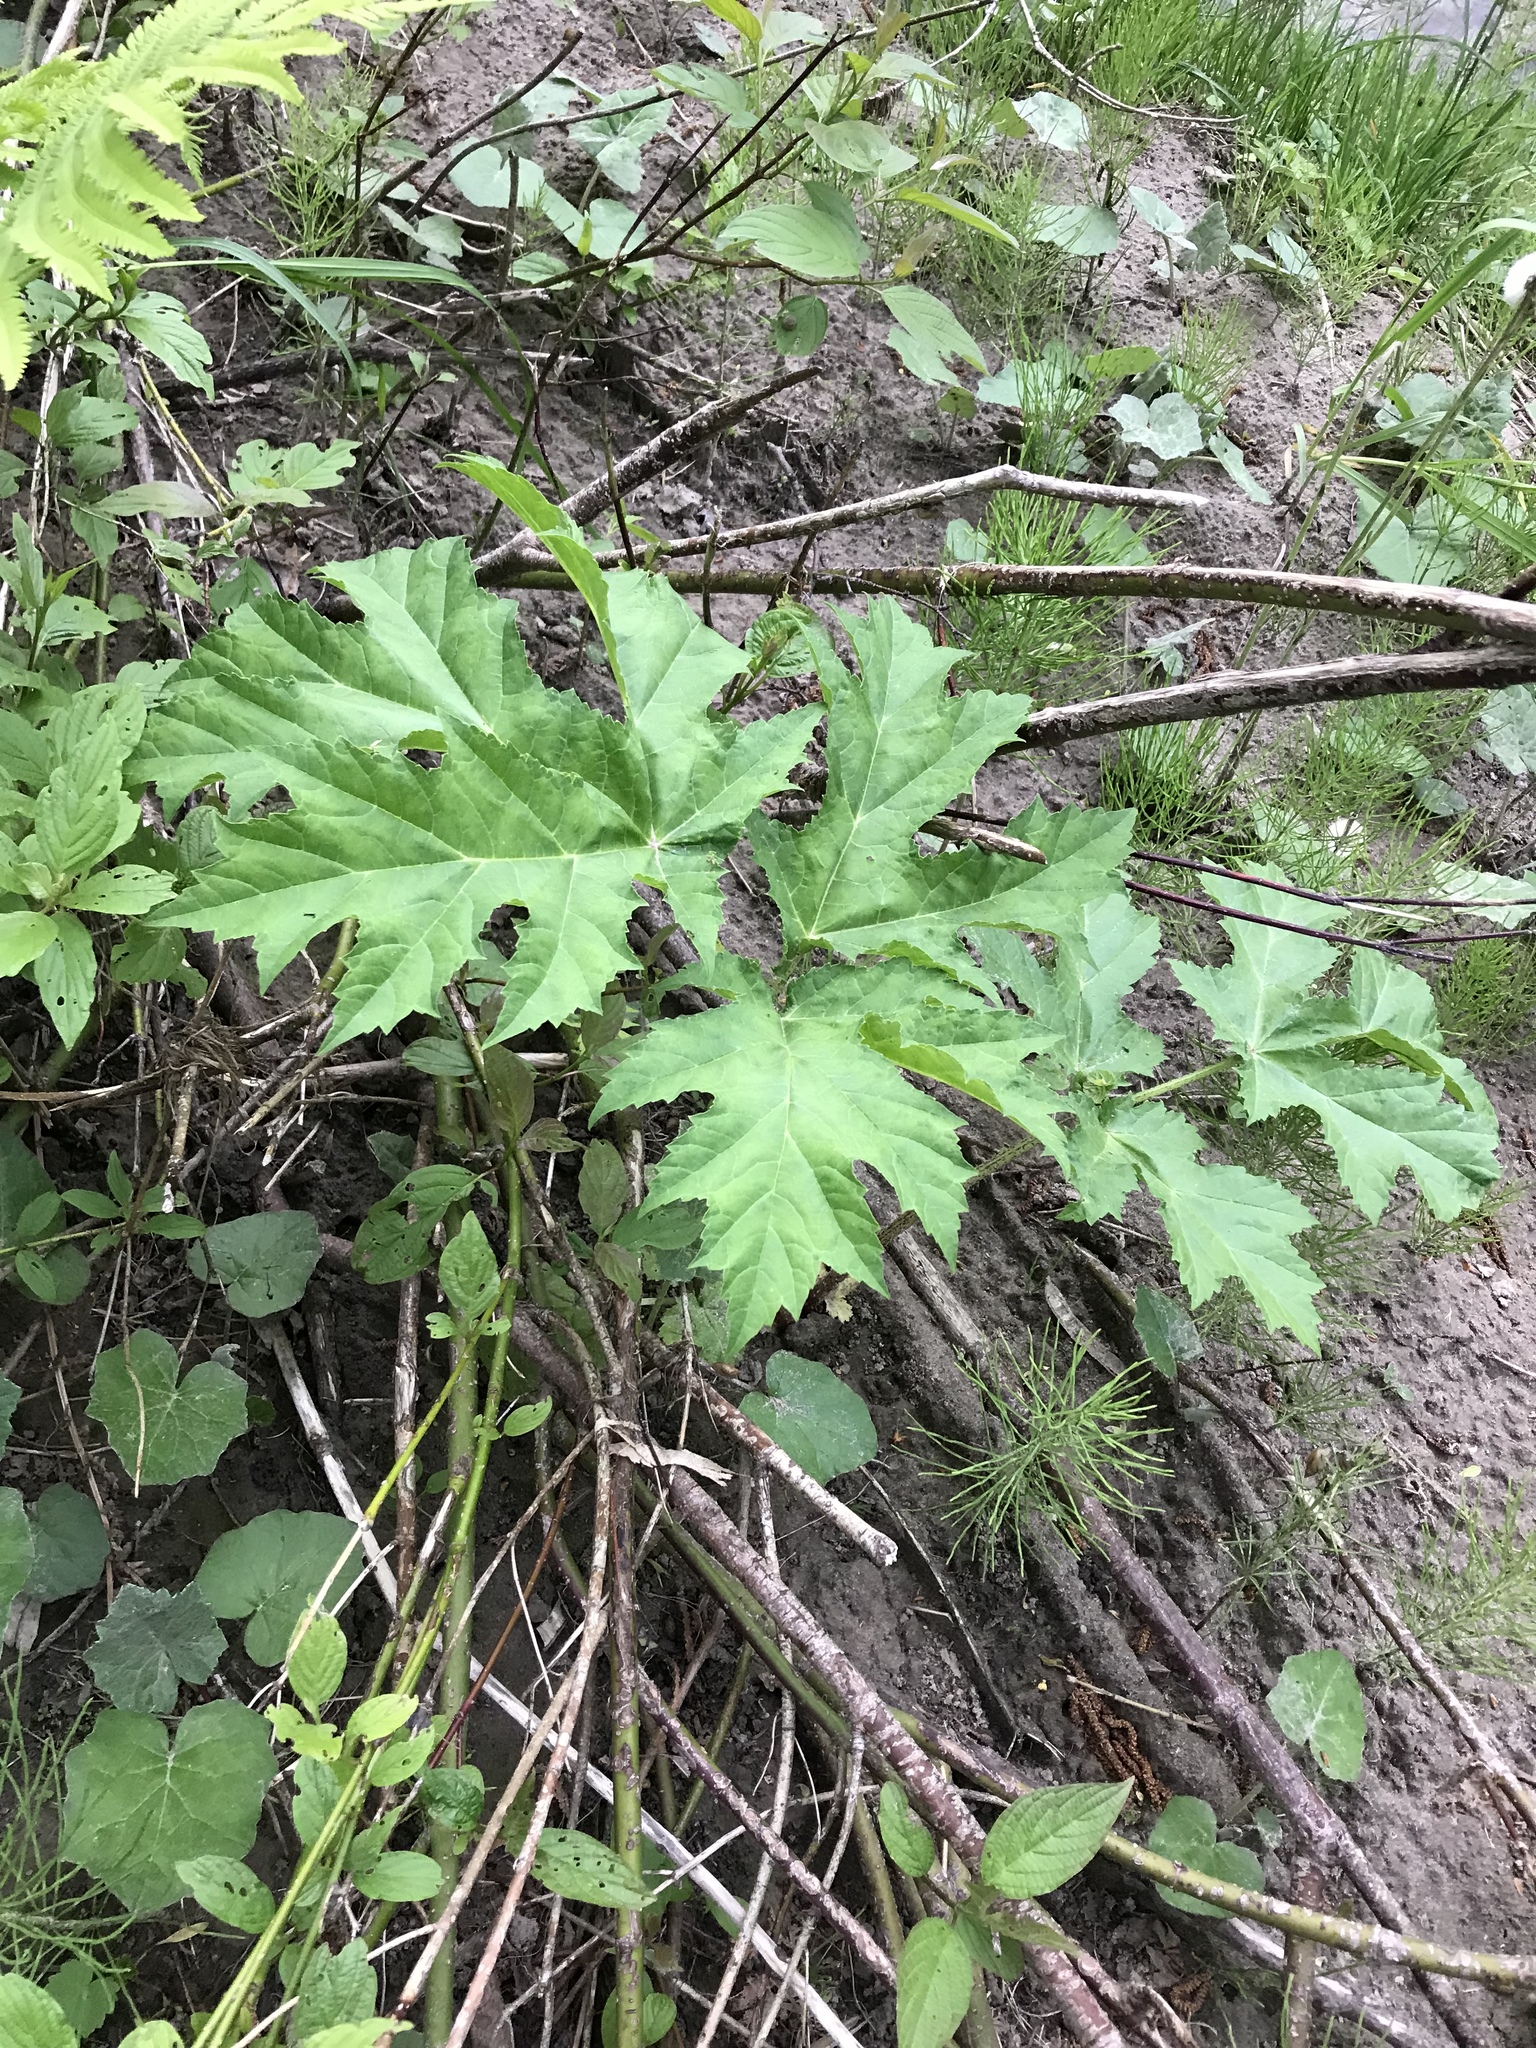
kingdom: Plantae
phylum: Tracheophyta
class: Magnoliopsida
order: Apiales
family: Apiaceae
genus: Heracleum
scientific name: Heracleum mantegazzianum
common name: Giant hogweed
